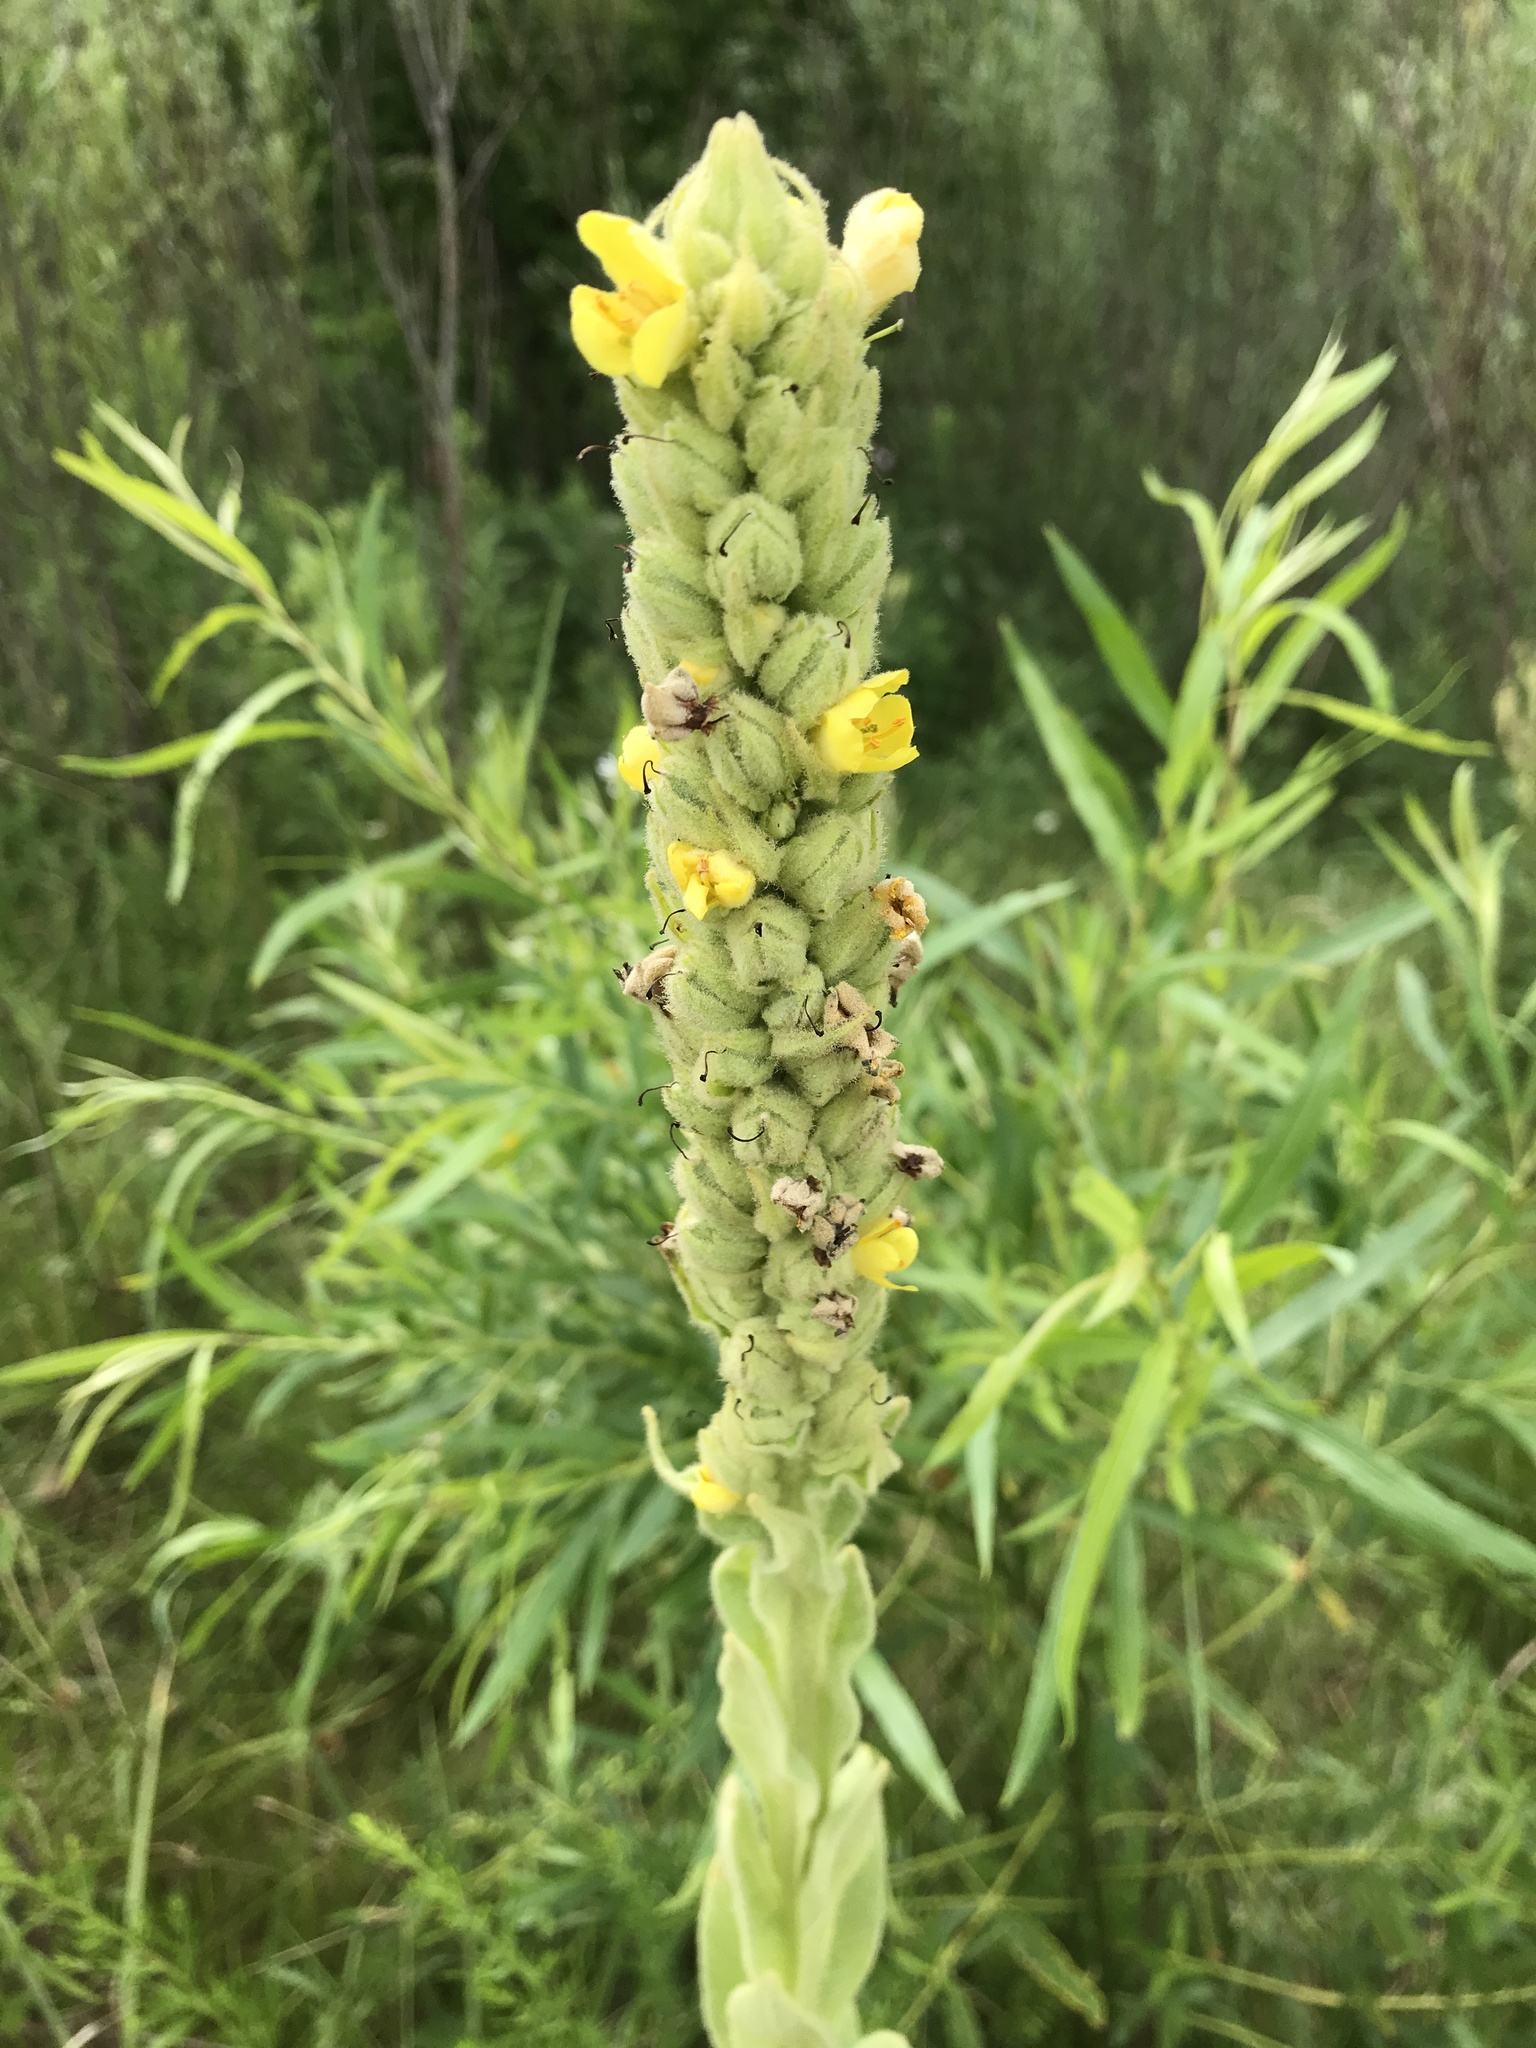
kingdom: Plantae
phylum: Tracheophyta
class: Magnoliopsida
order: Lamiales
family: Scrophulariaceae
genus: Verbascum
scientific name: Verbascum thapsus
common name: Common mullein
